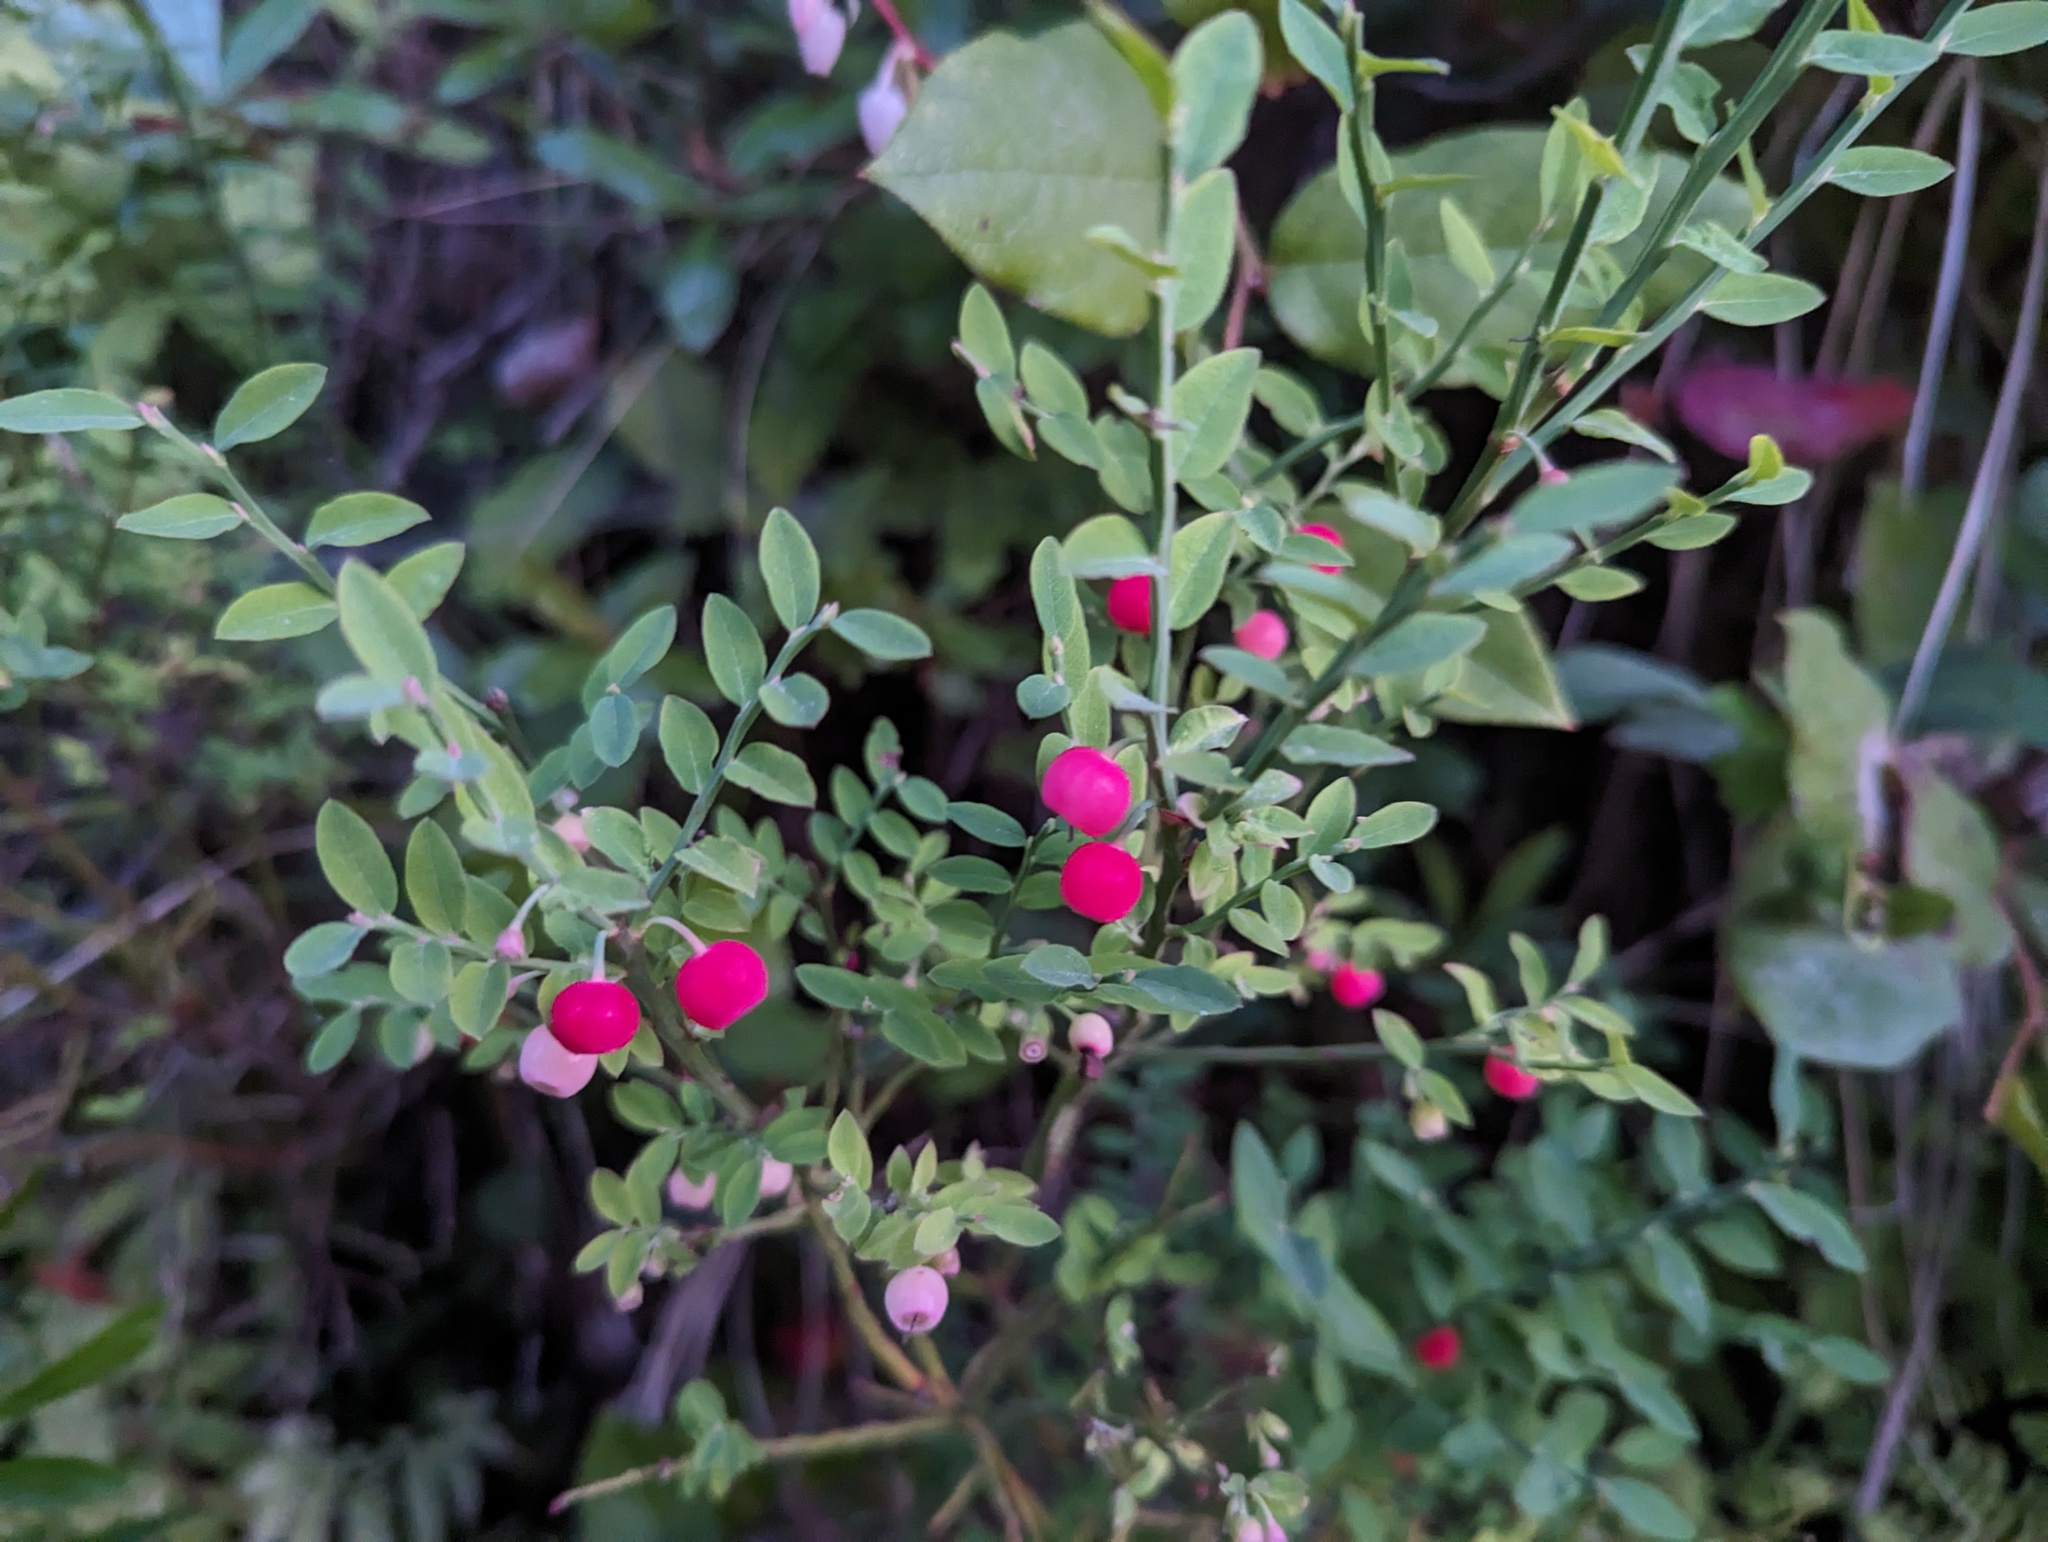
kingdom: Plantae
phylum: Tracheophyta
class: Magnoliopsida
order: Ericales
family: Ericaceae
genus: Vaccinium
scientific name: Vaccinium parvifolium
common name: Red-huckleberry
